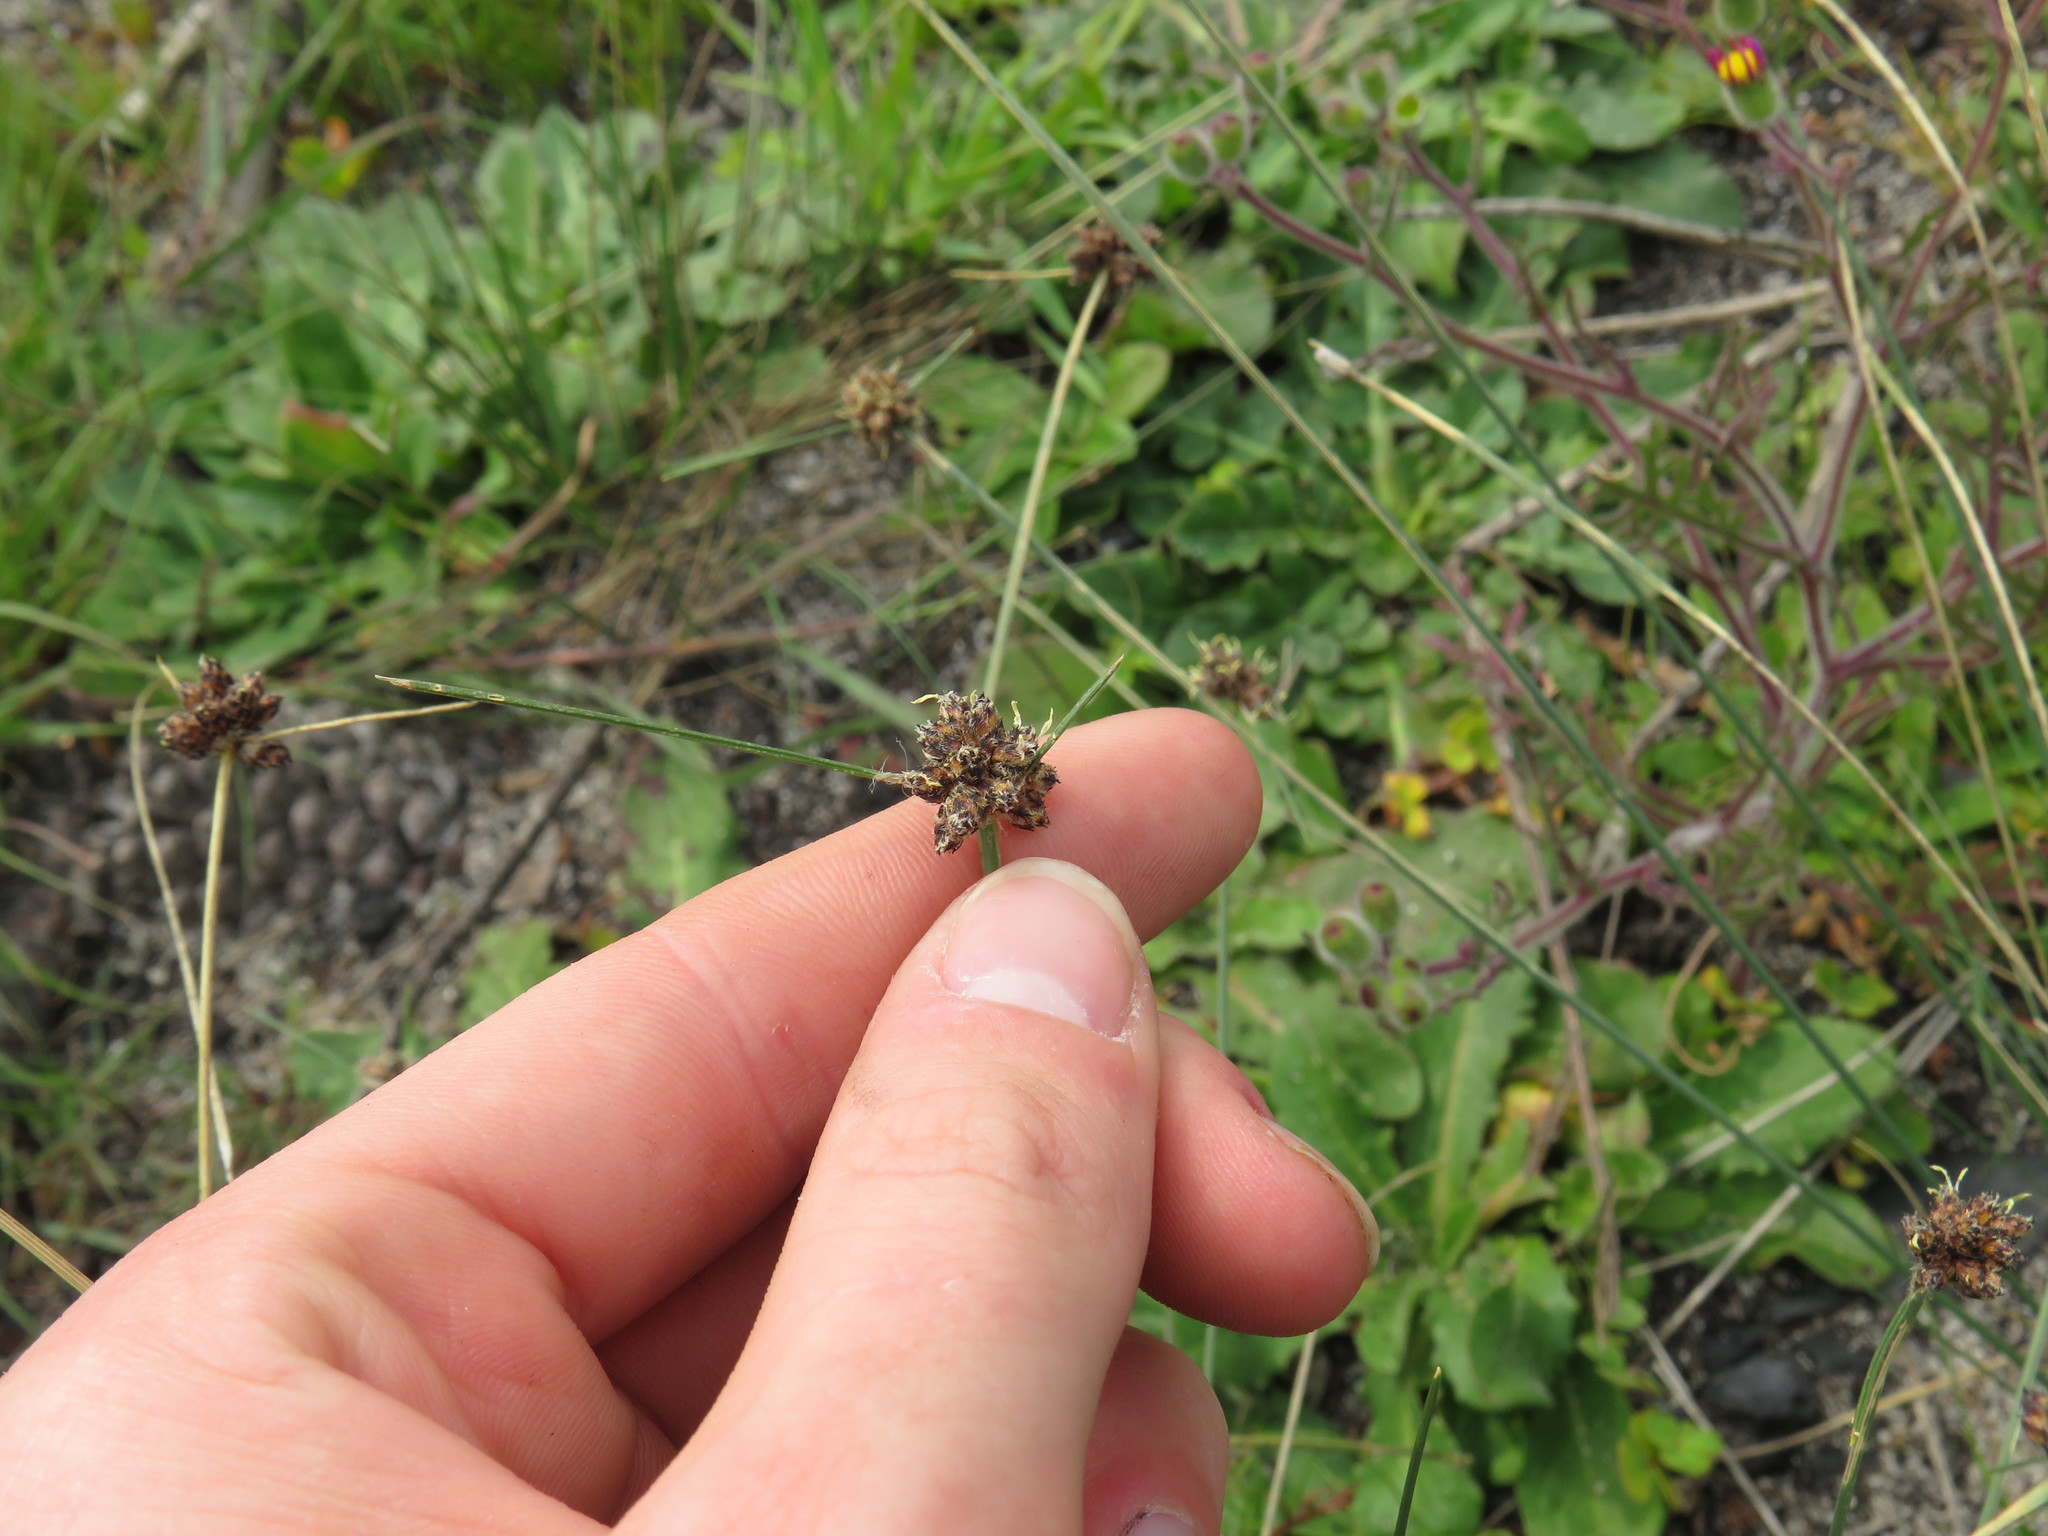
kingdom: Plantae
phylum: Tracheophyta
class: Liliopsida
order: Poales
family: Cyperaceae
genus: Ficinia
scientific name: Ficinia gracilis
